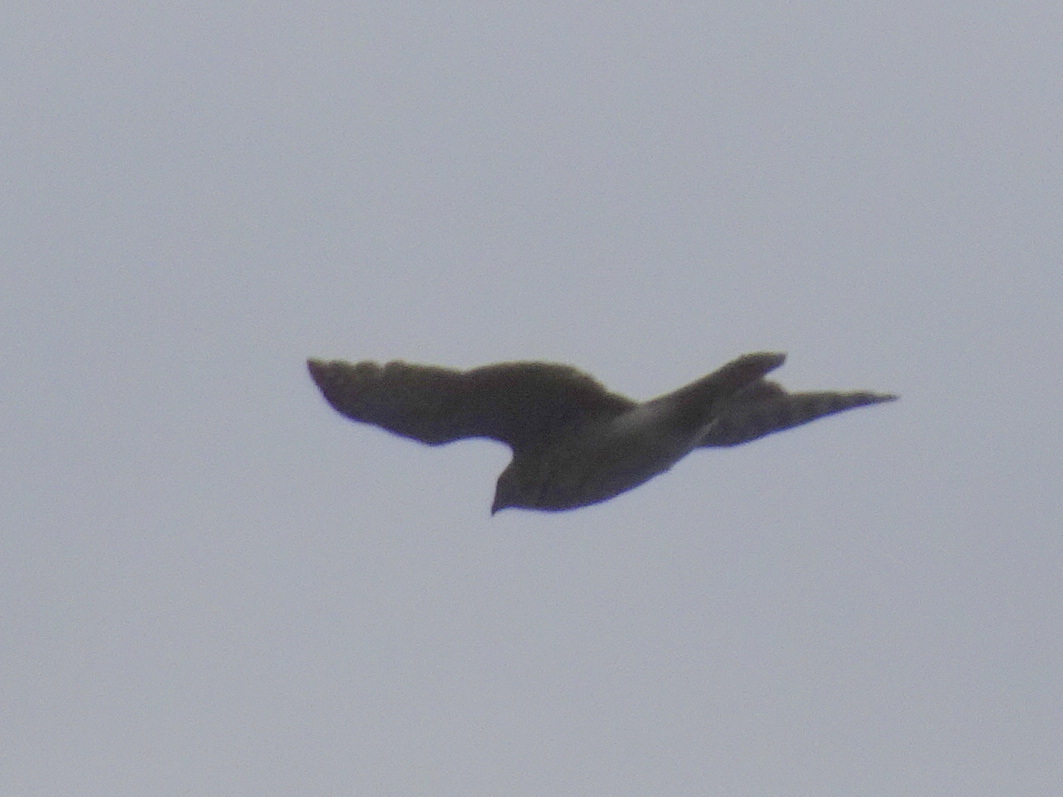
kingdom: Animalia
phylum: Chordata
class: Aves
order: Accipitriformes
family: Accipitridae
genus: Accipiter
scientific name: Accipiter cooperii
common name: Cooper's hawk
